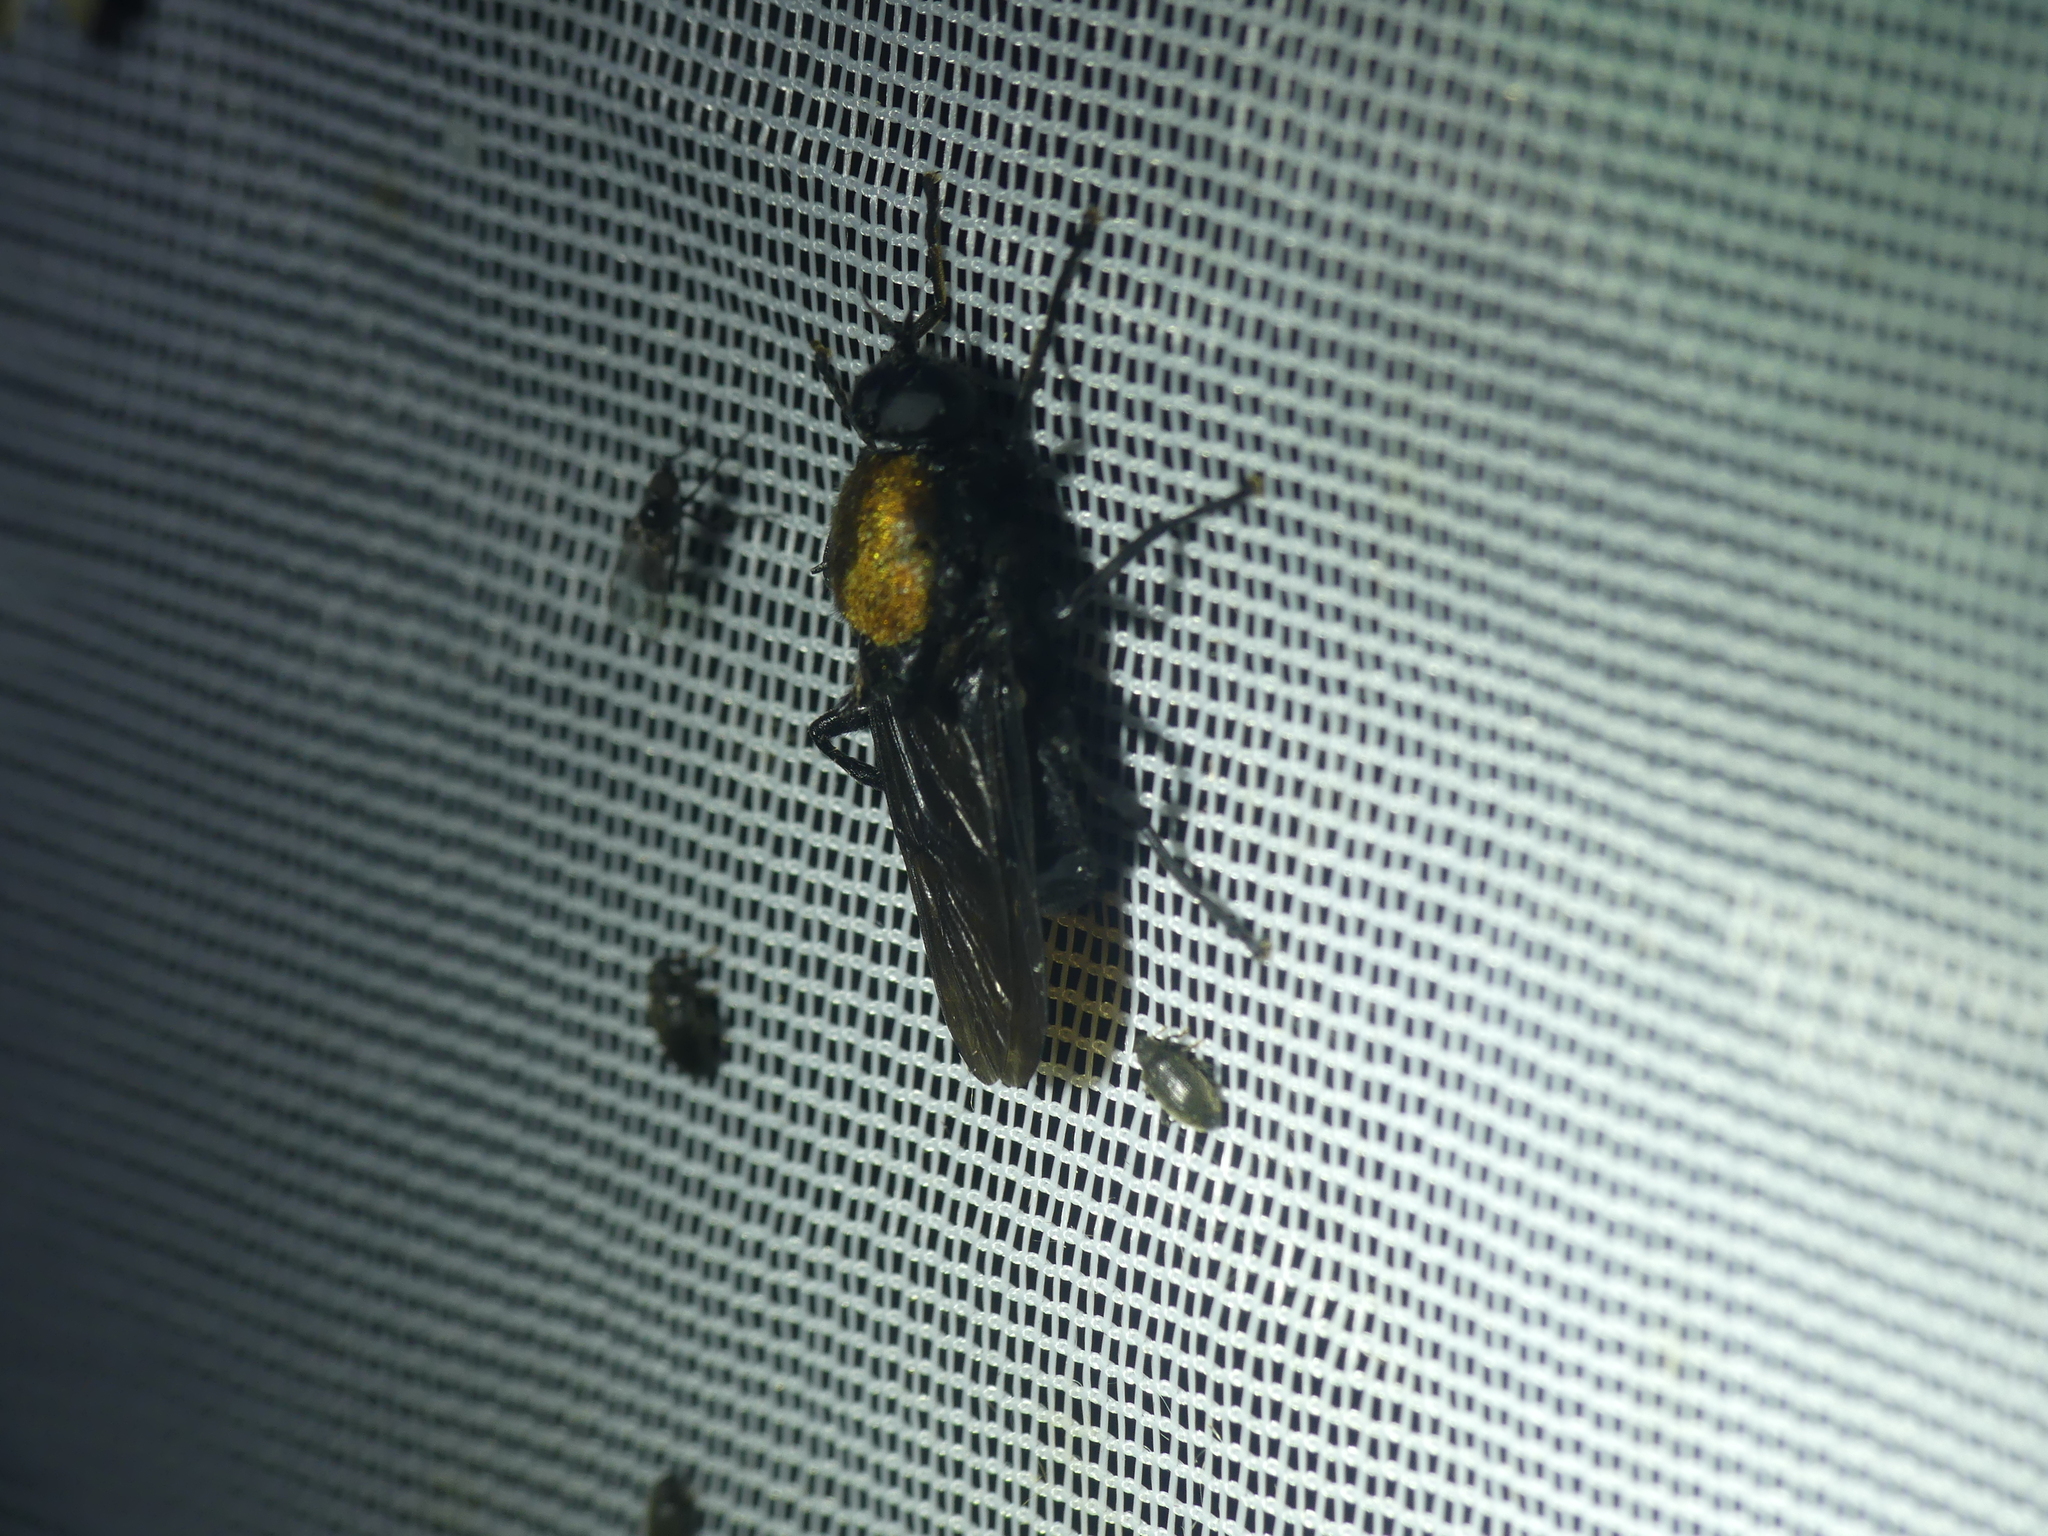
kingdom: Animalia
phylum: Arthropoda
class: Insecta
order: Diptera
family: Stratiomyidae
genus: Clitellaria
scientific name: Clitellaria ephippium
